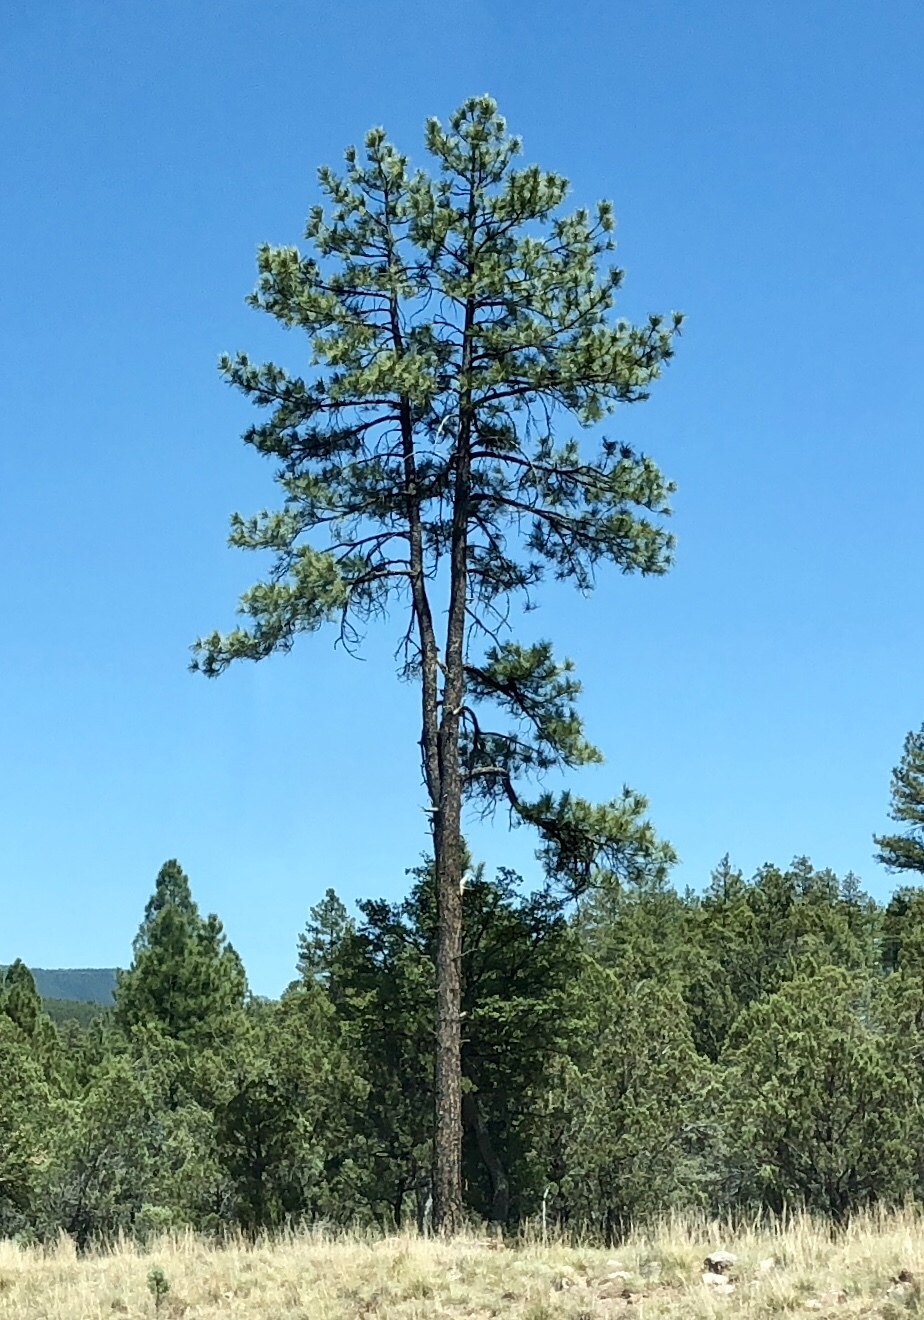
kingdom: Plantae
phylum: Tracheophyta
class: Pinopsida
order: Pinales
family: Pinaceae
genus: Pinus
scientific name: Pinus ponderosa
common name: Western yellow-pine
